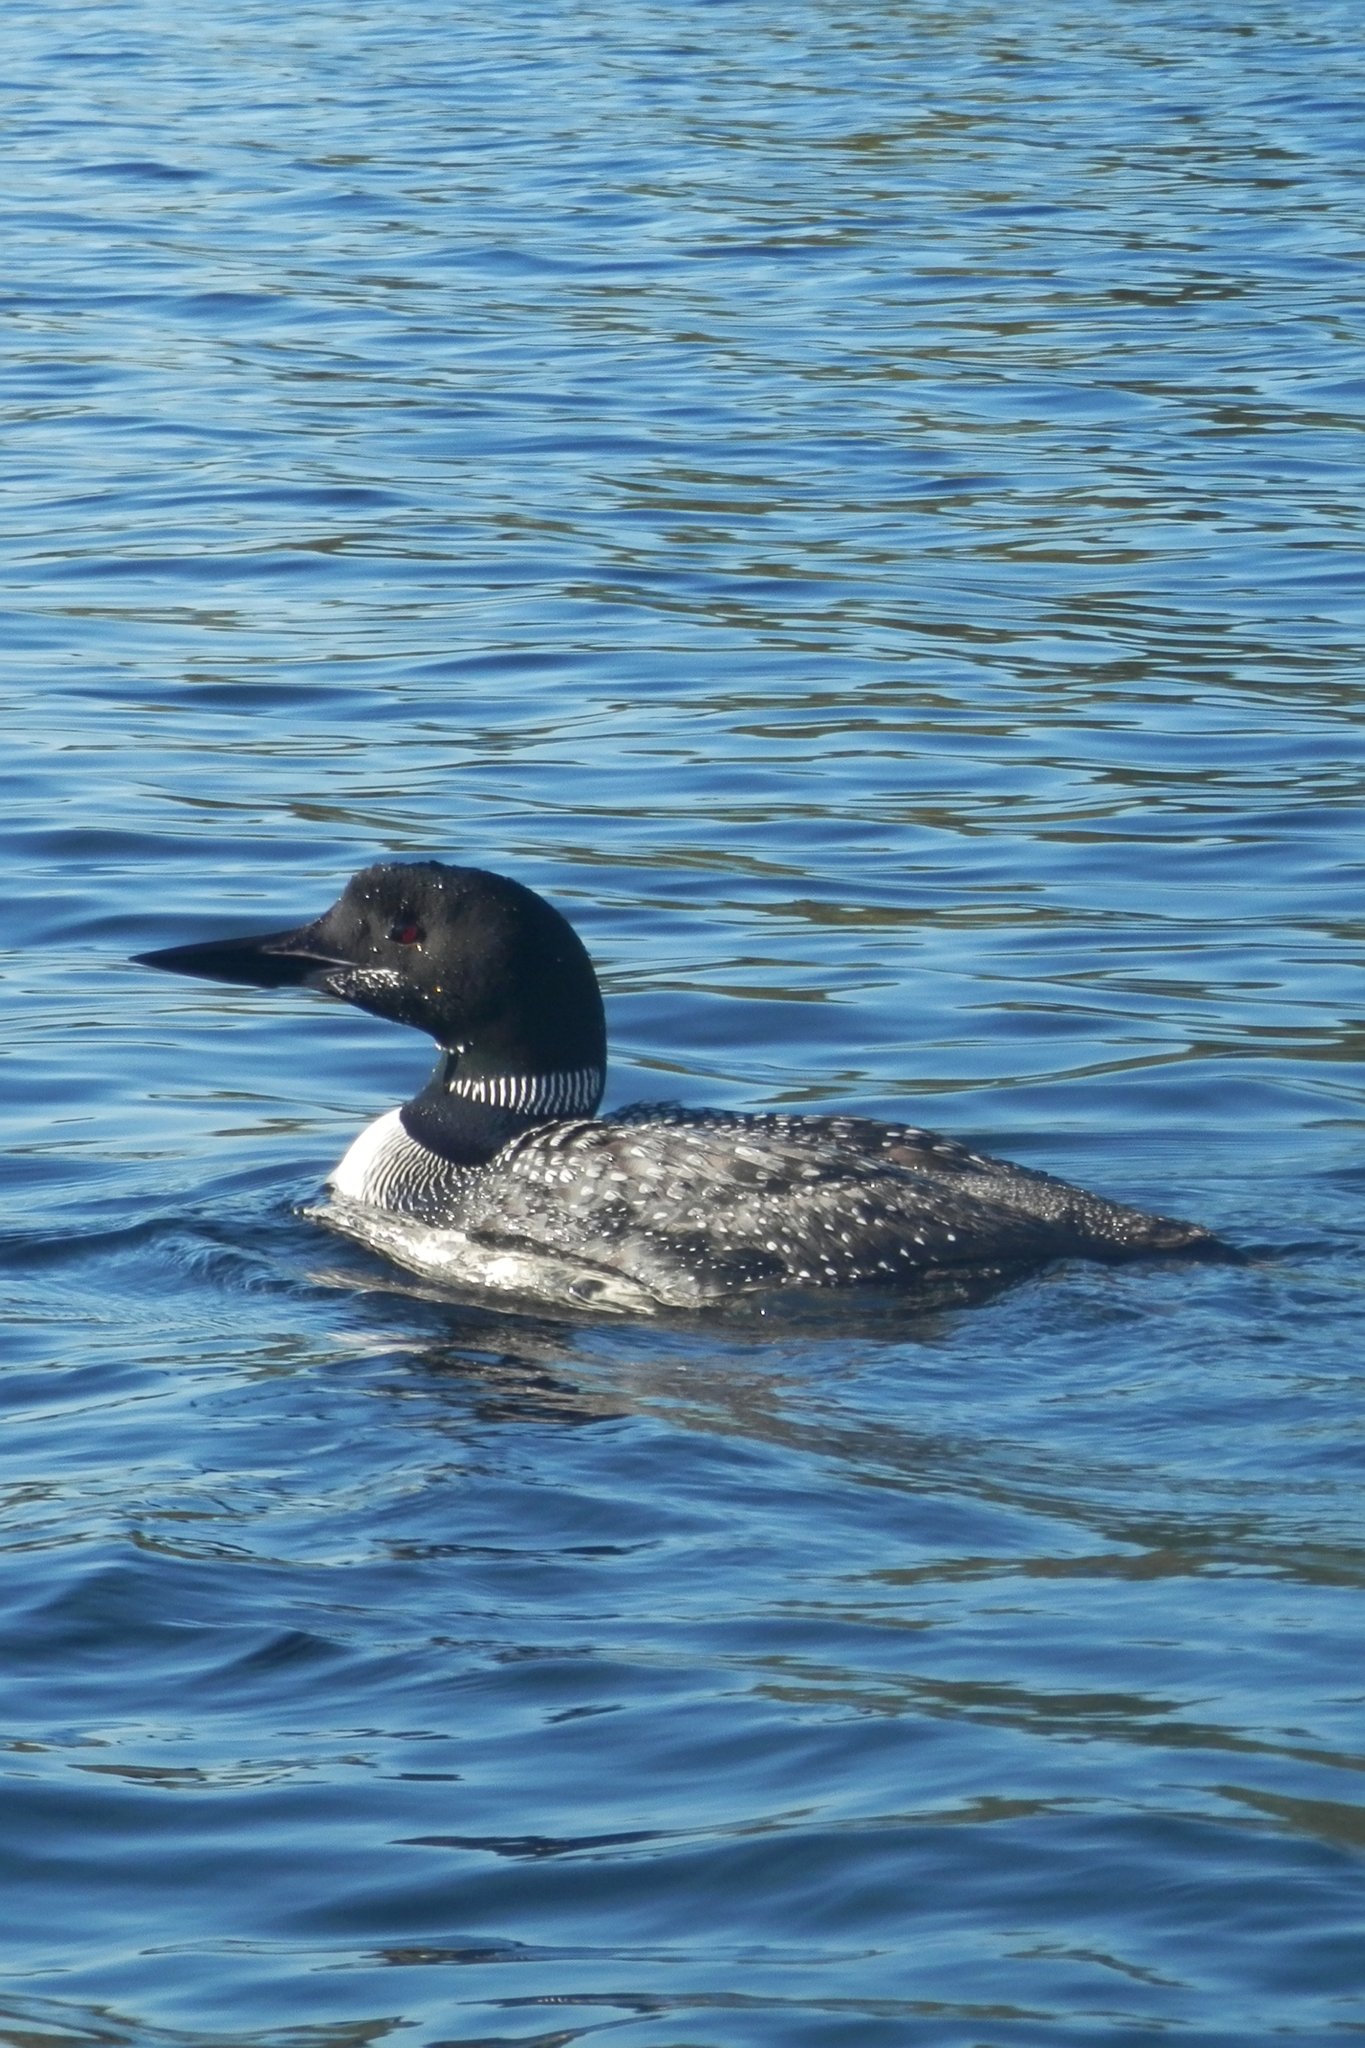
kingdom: Animalia
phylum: Chordata
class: Aves
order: Gaviiformes
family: Gaviidae
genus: Gavia
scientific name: Gavia immer
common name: Common loon
